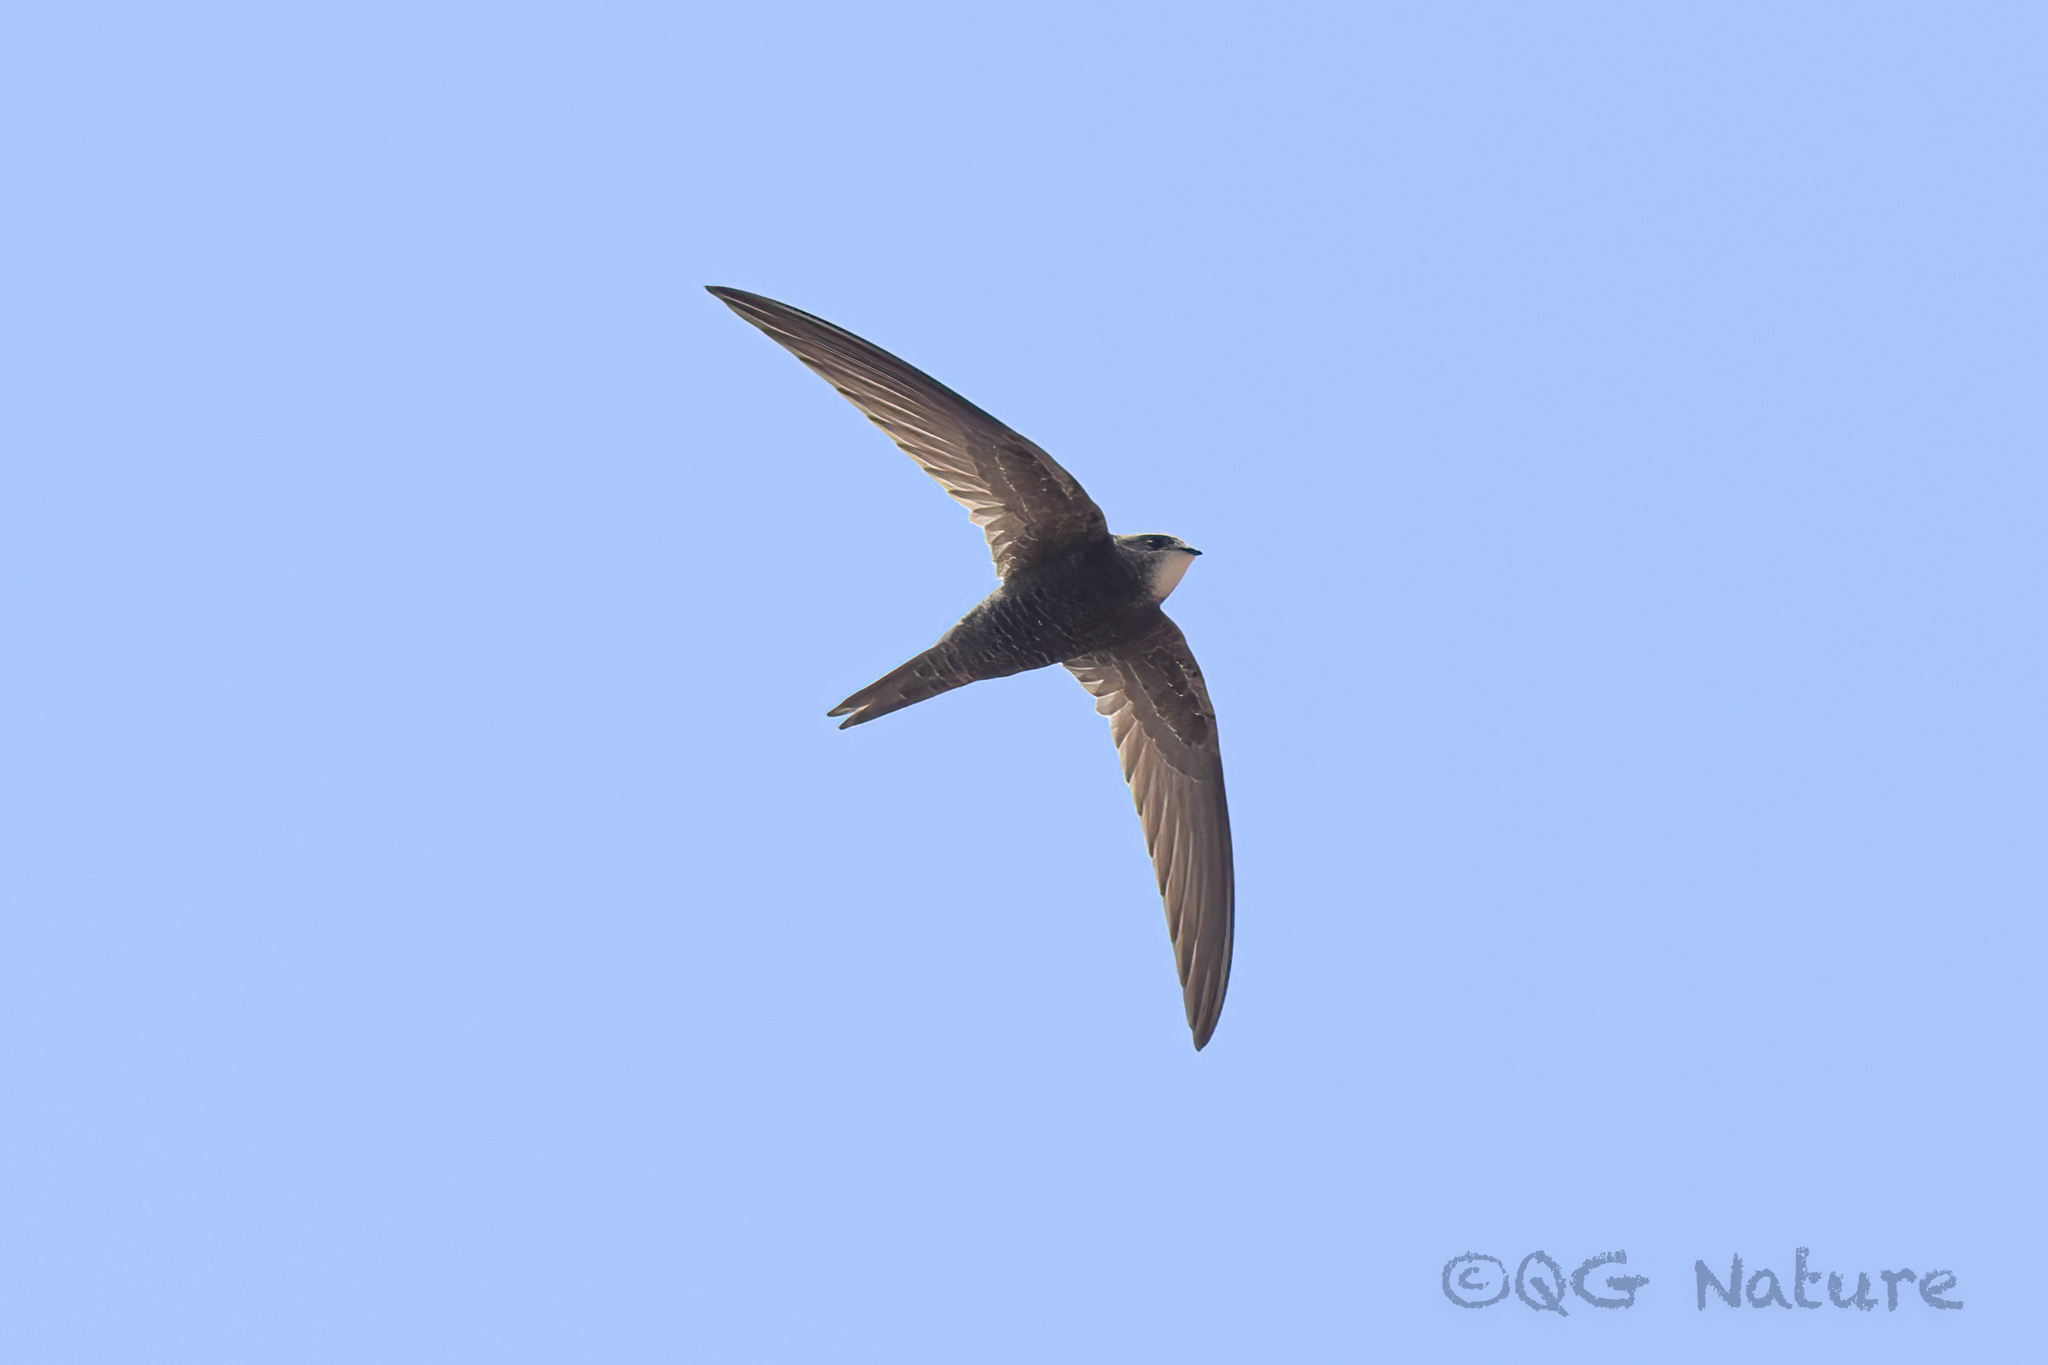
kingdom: Animalia
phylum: Chordata
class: Aves
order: Apodiformes
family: Apodidae
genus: Apus
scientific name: Apus apus
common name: Common swift
